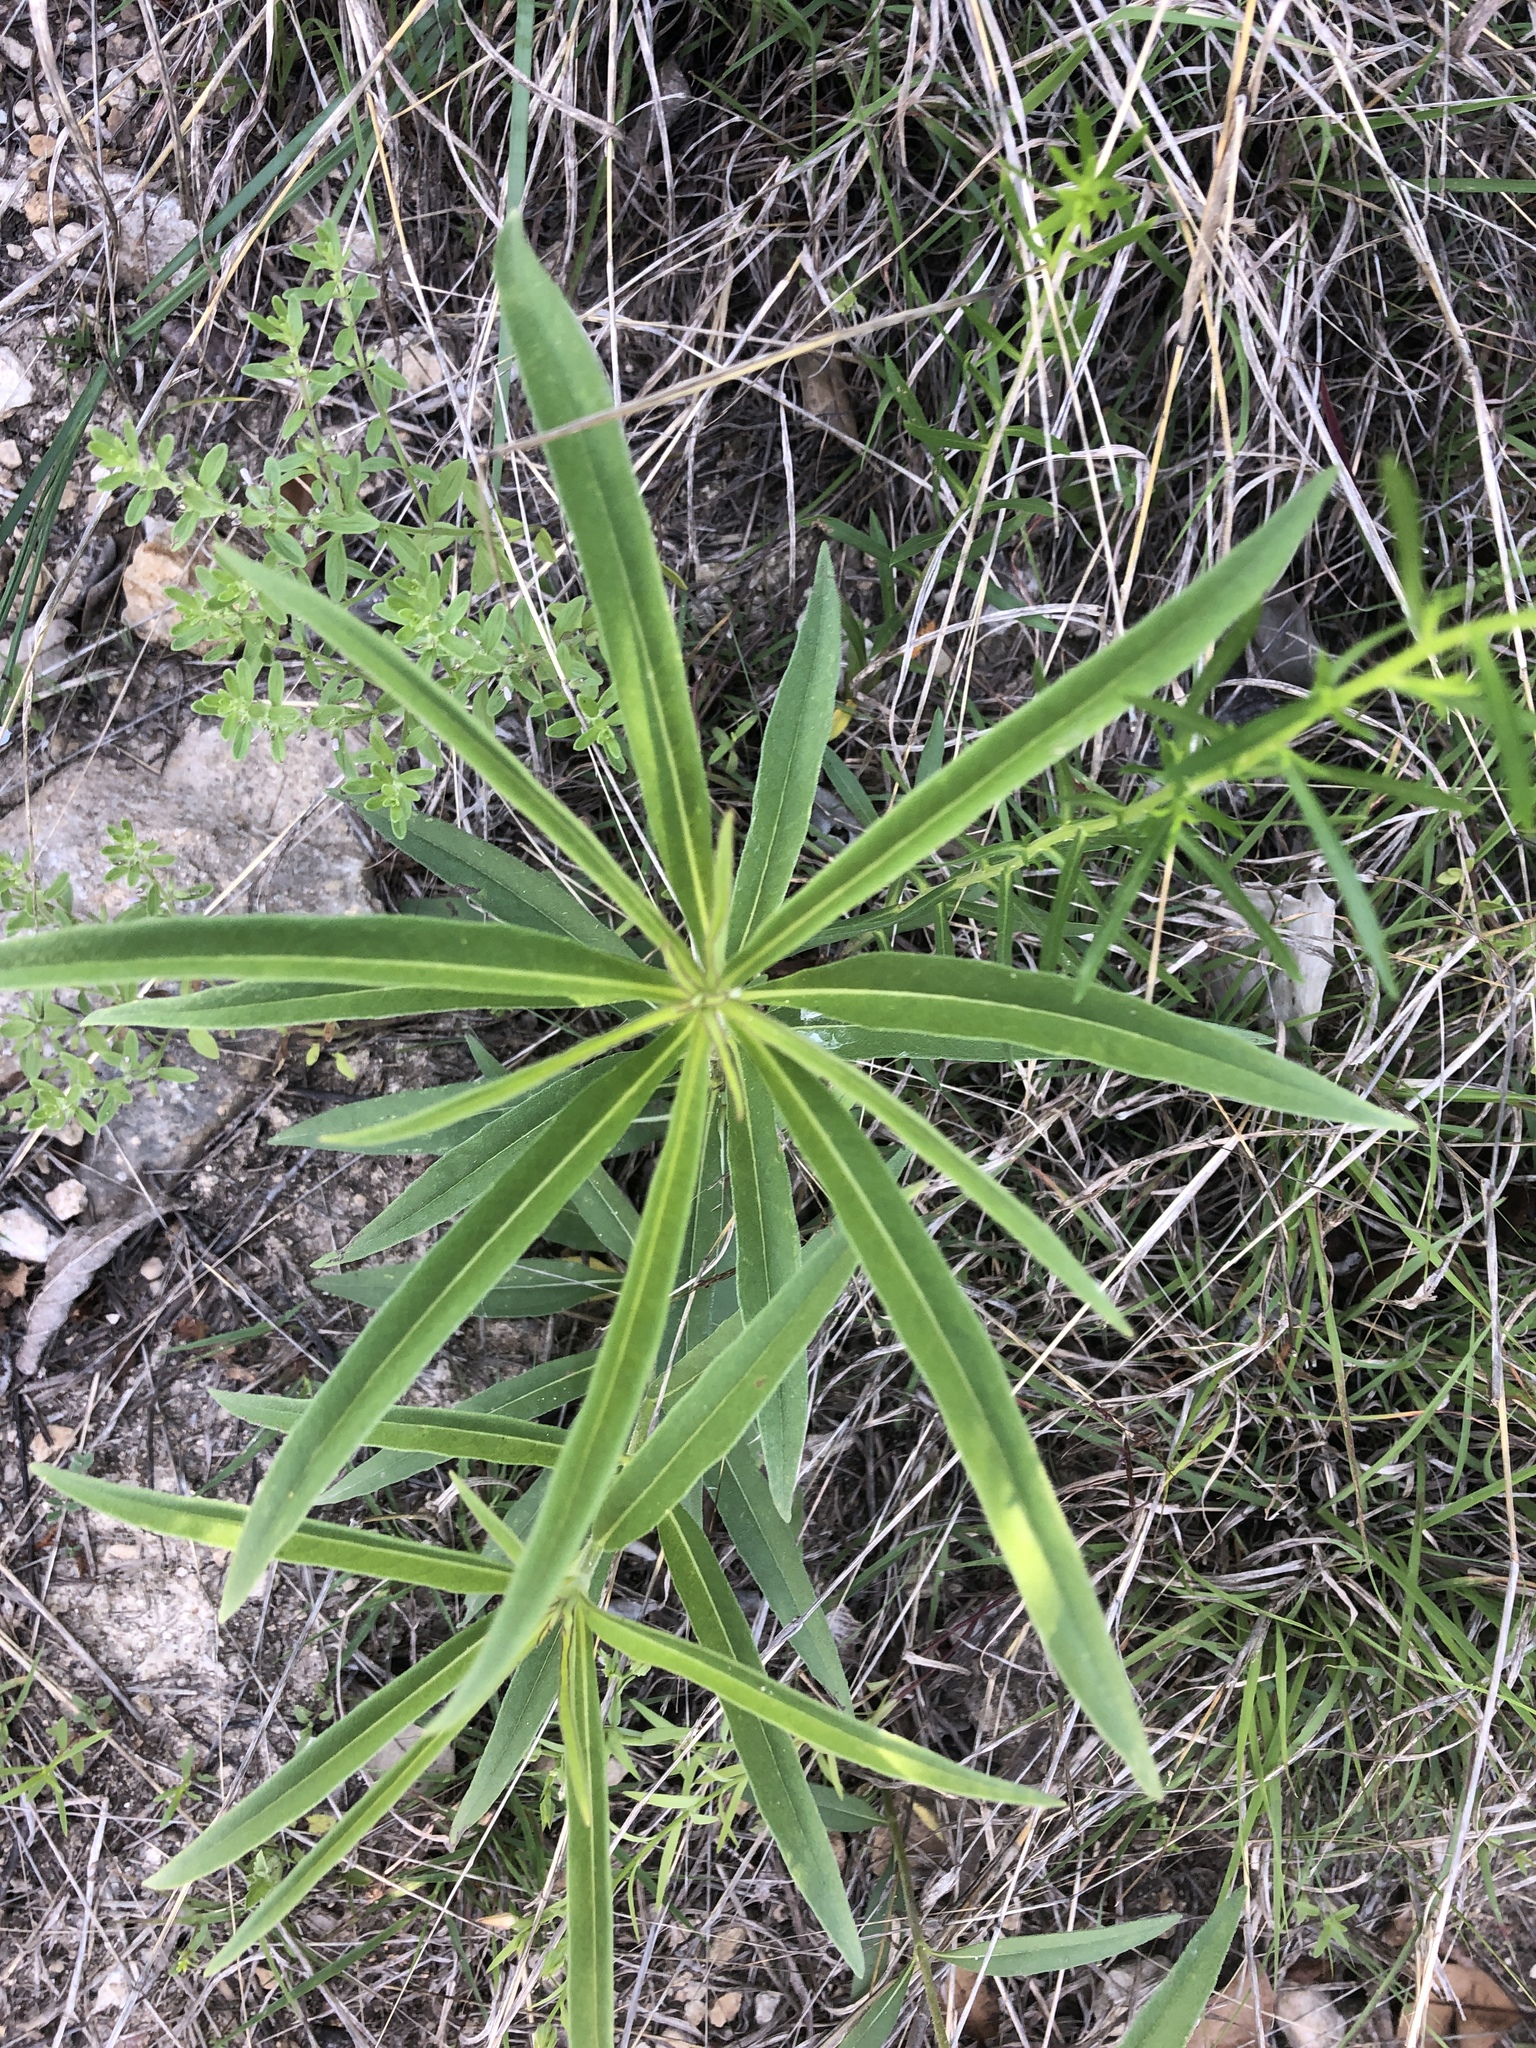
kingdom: Plantae
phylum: Tracheophyta
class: Magnoliopsida
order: Asterales
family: Asteraceae
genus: Helianthus
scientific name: Helianthus maximiliani
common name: Maximilian's sunflower
